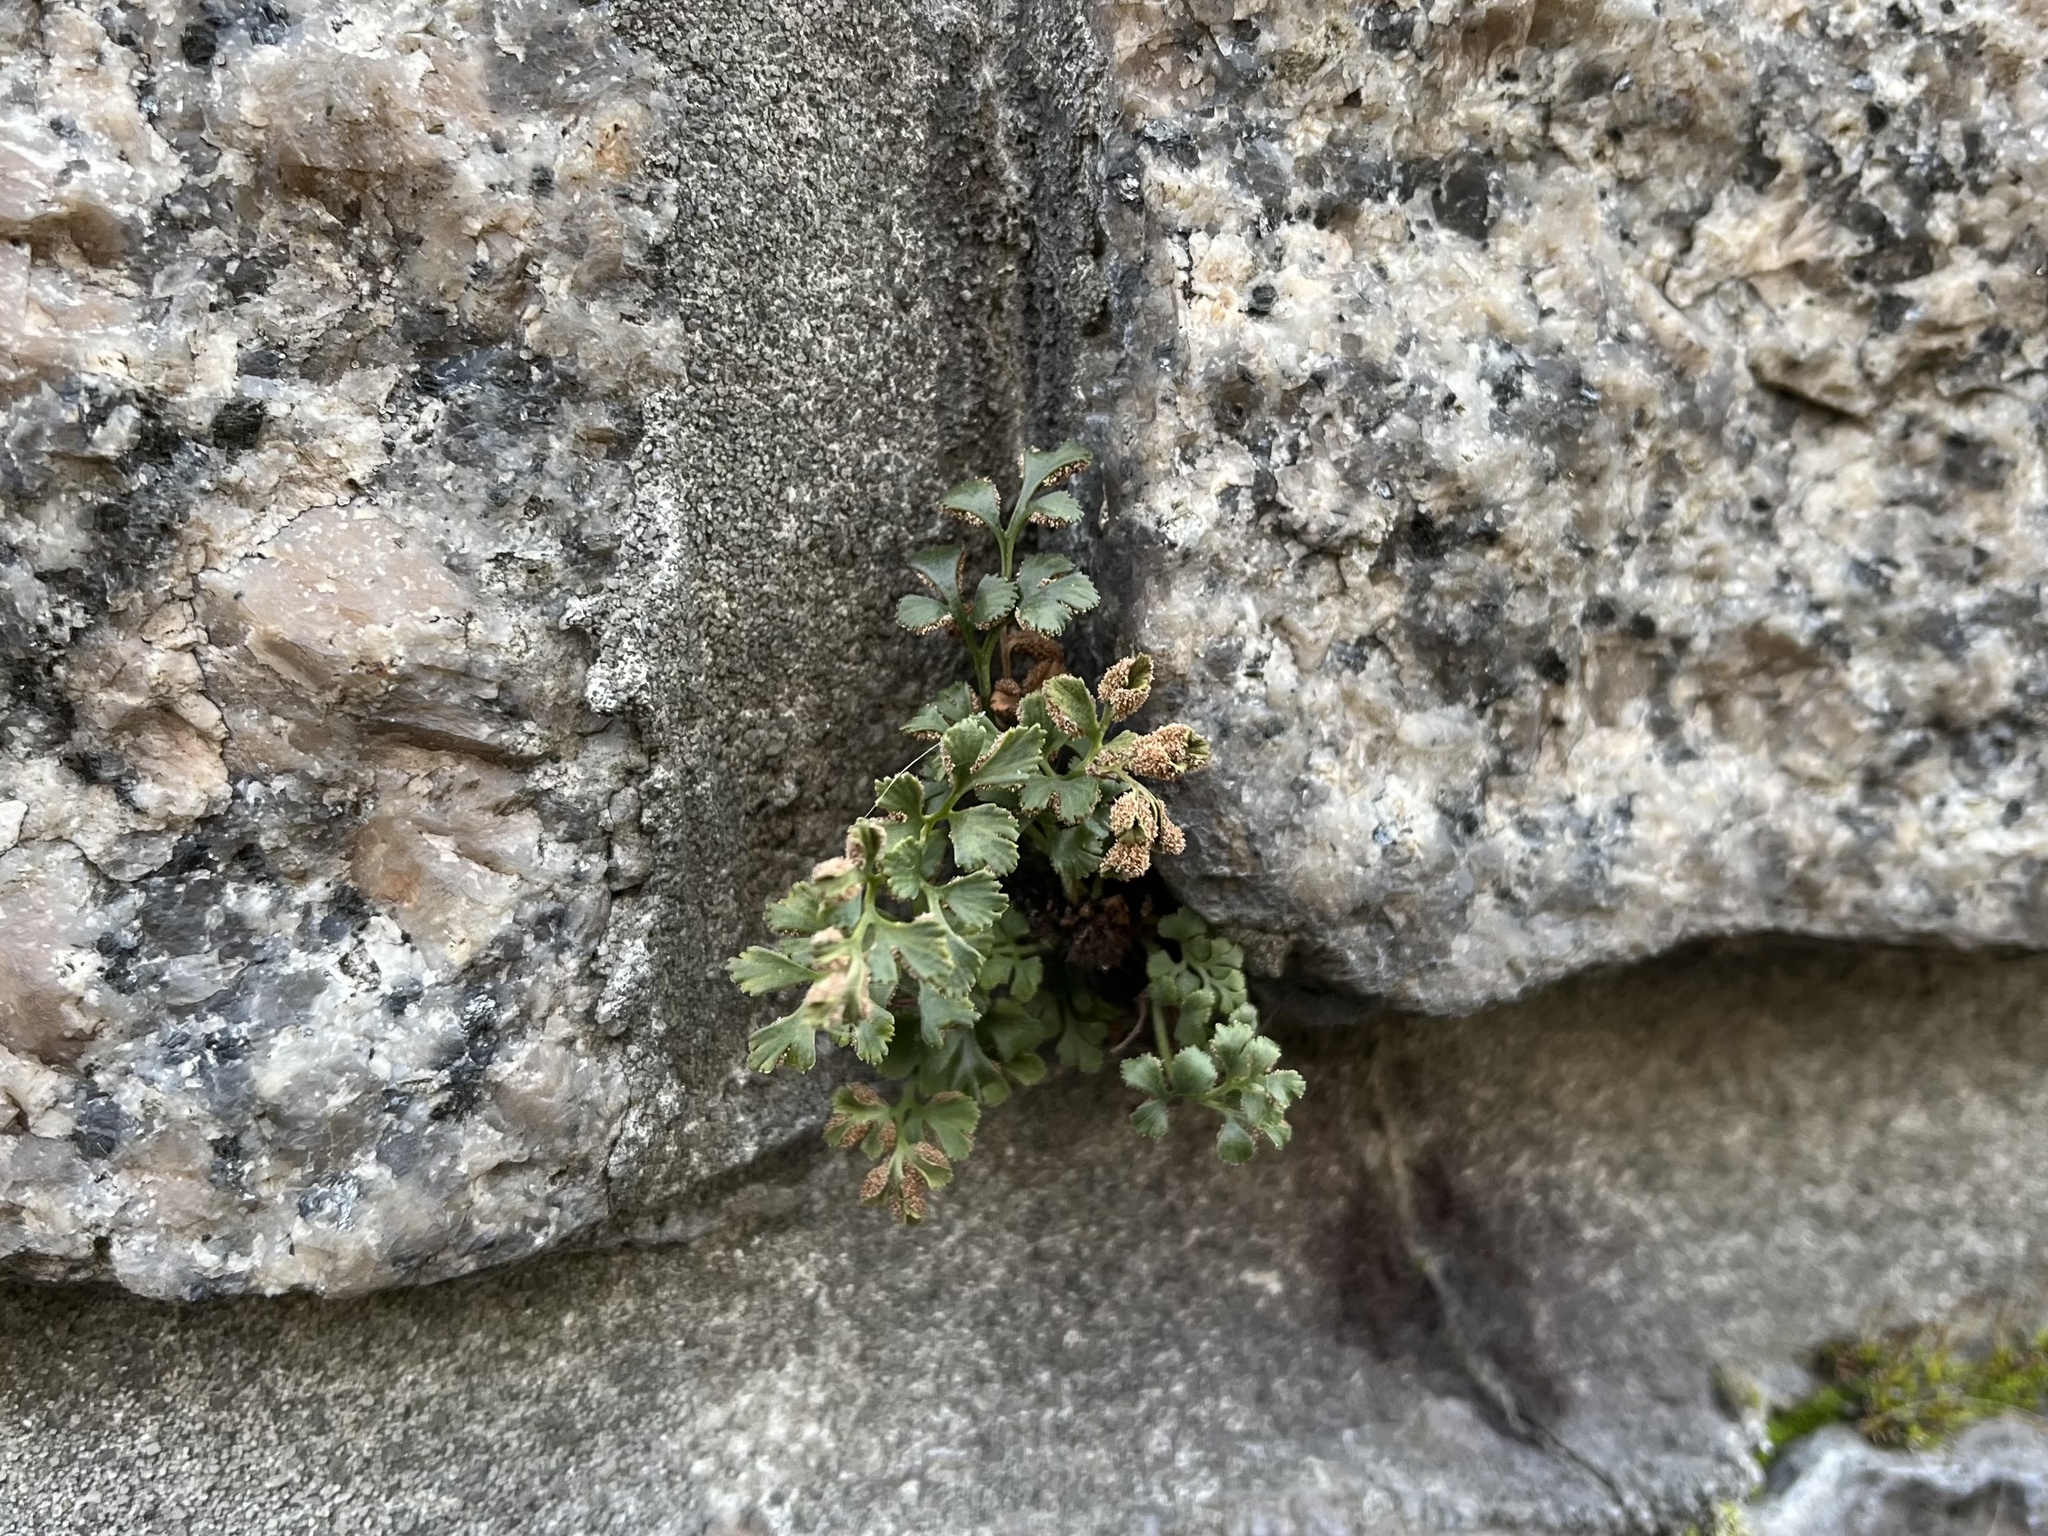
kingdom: Plantae
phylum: Tracheophyta
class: Polypodiopsida
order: Polypodiales
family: Aspleniaceae
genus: Asplenium
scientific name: Asplenium ruta-muraria
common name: Wall-rue
